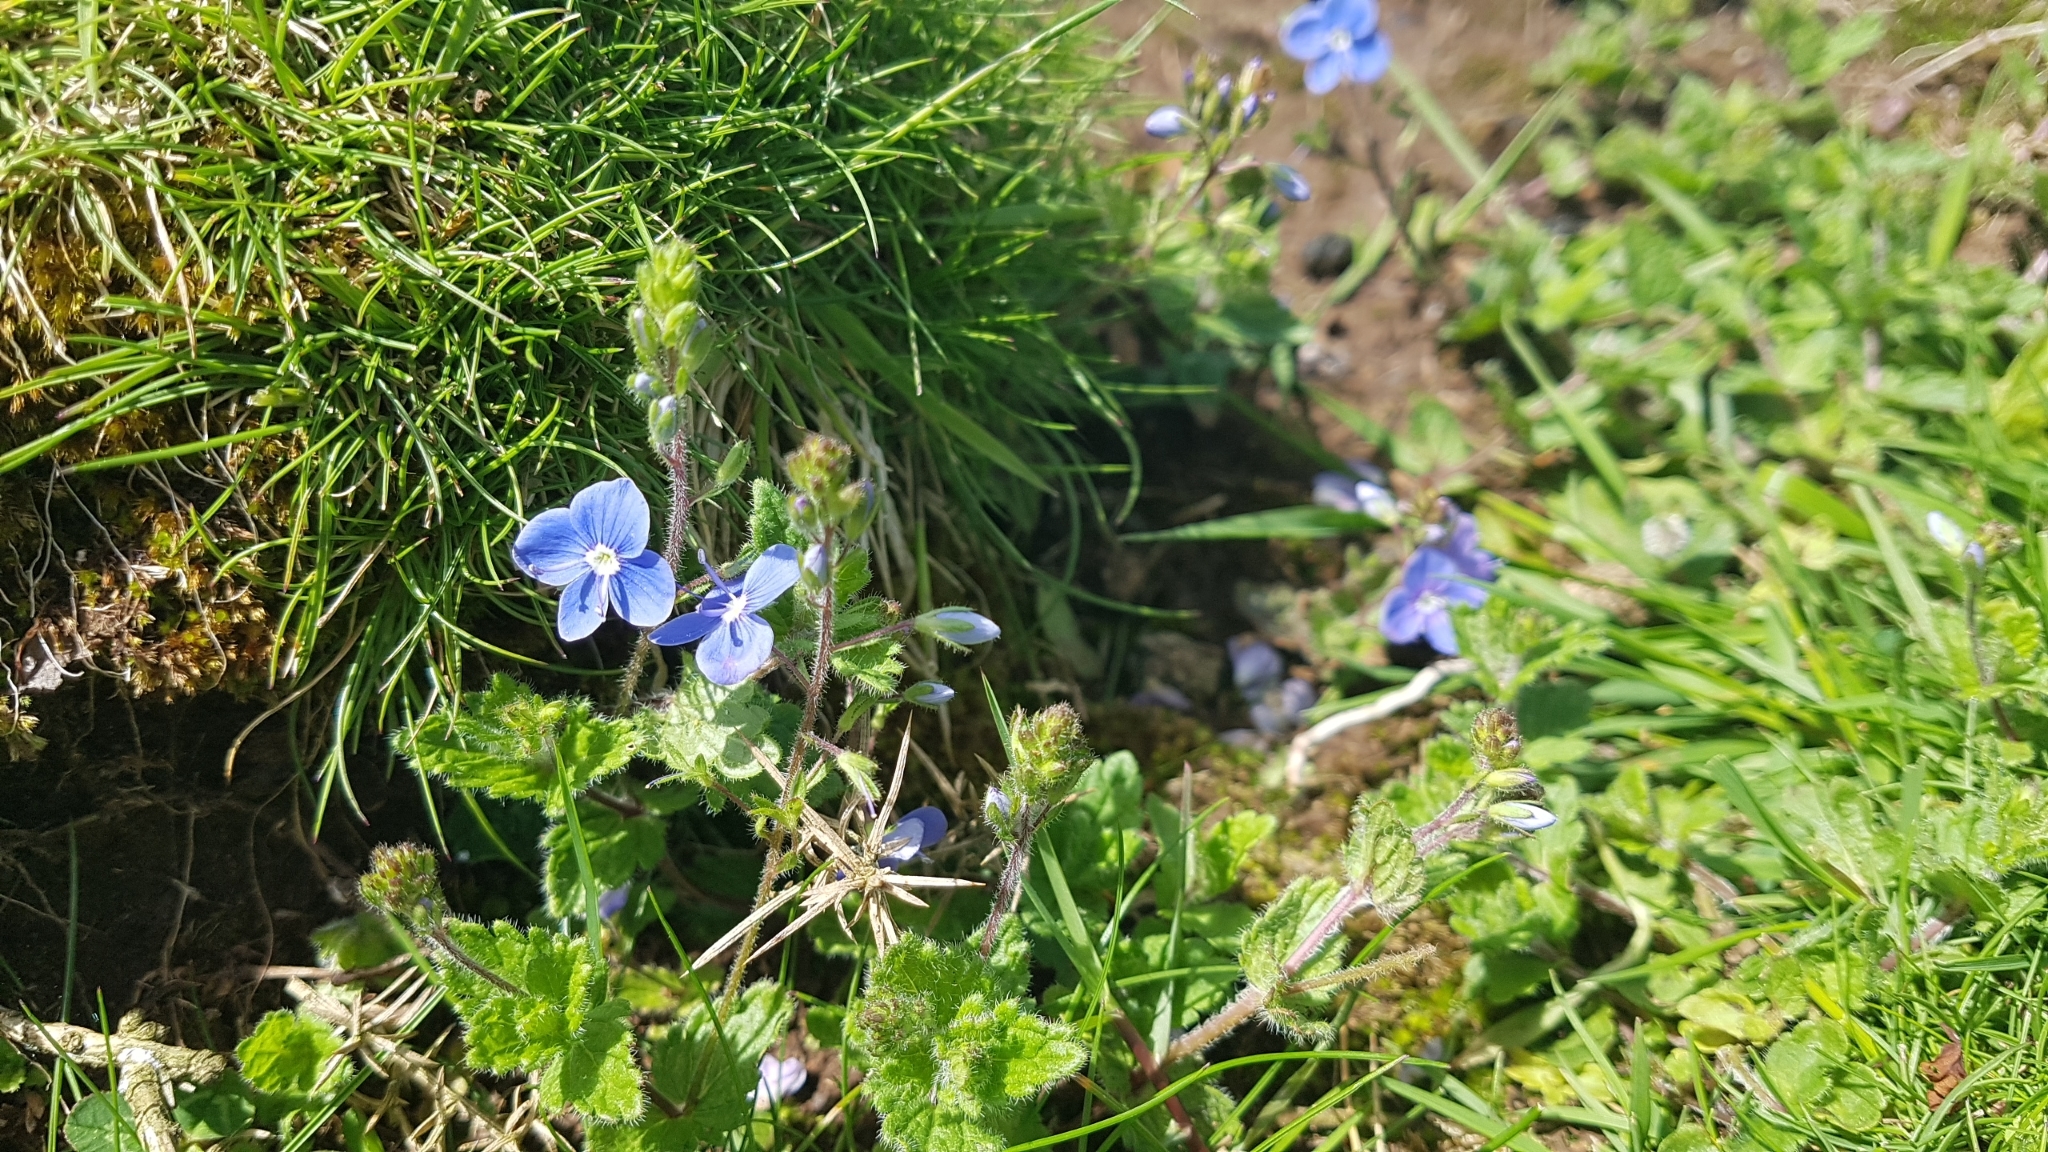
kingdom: Plantae
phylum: Tracheophyta
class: Magnoliopsida
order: Lamiales
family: Plantaginaceae
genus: Veronica
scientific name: Veronica chamaedrys
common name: Germander speedwell
